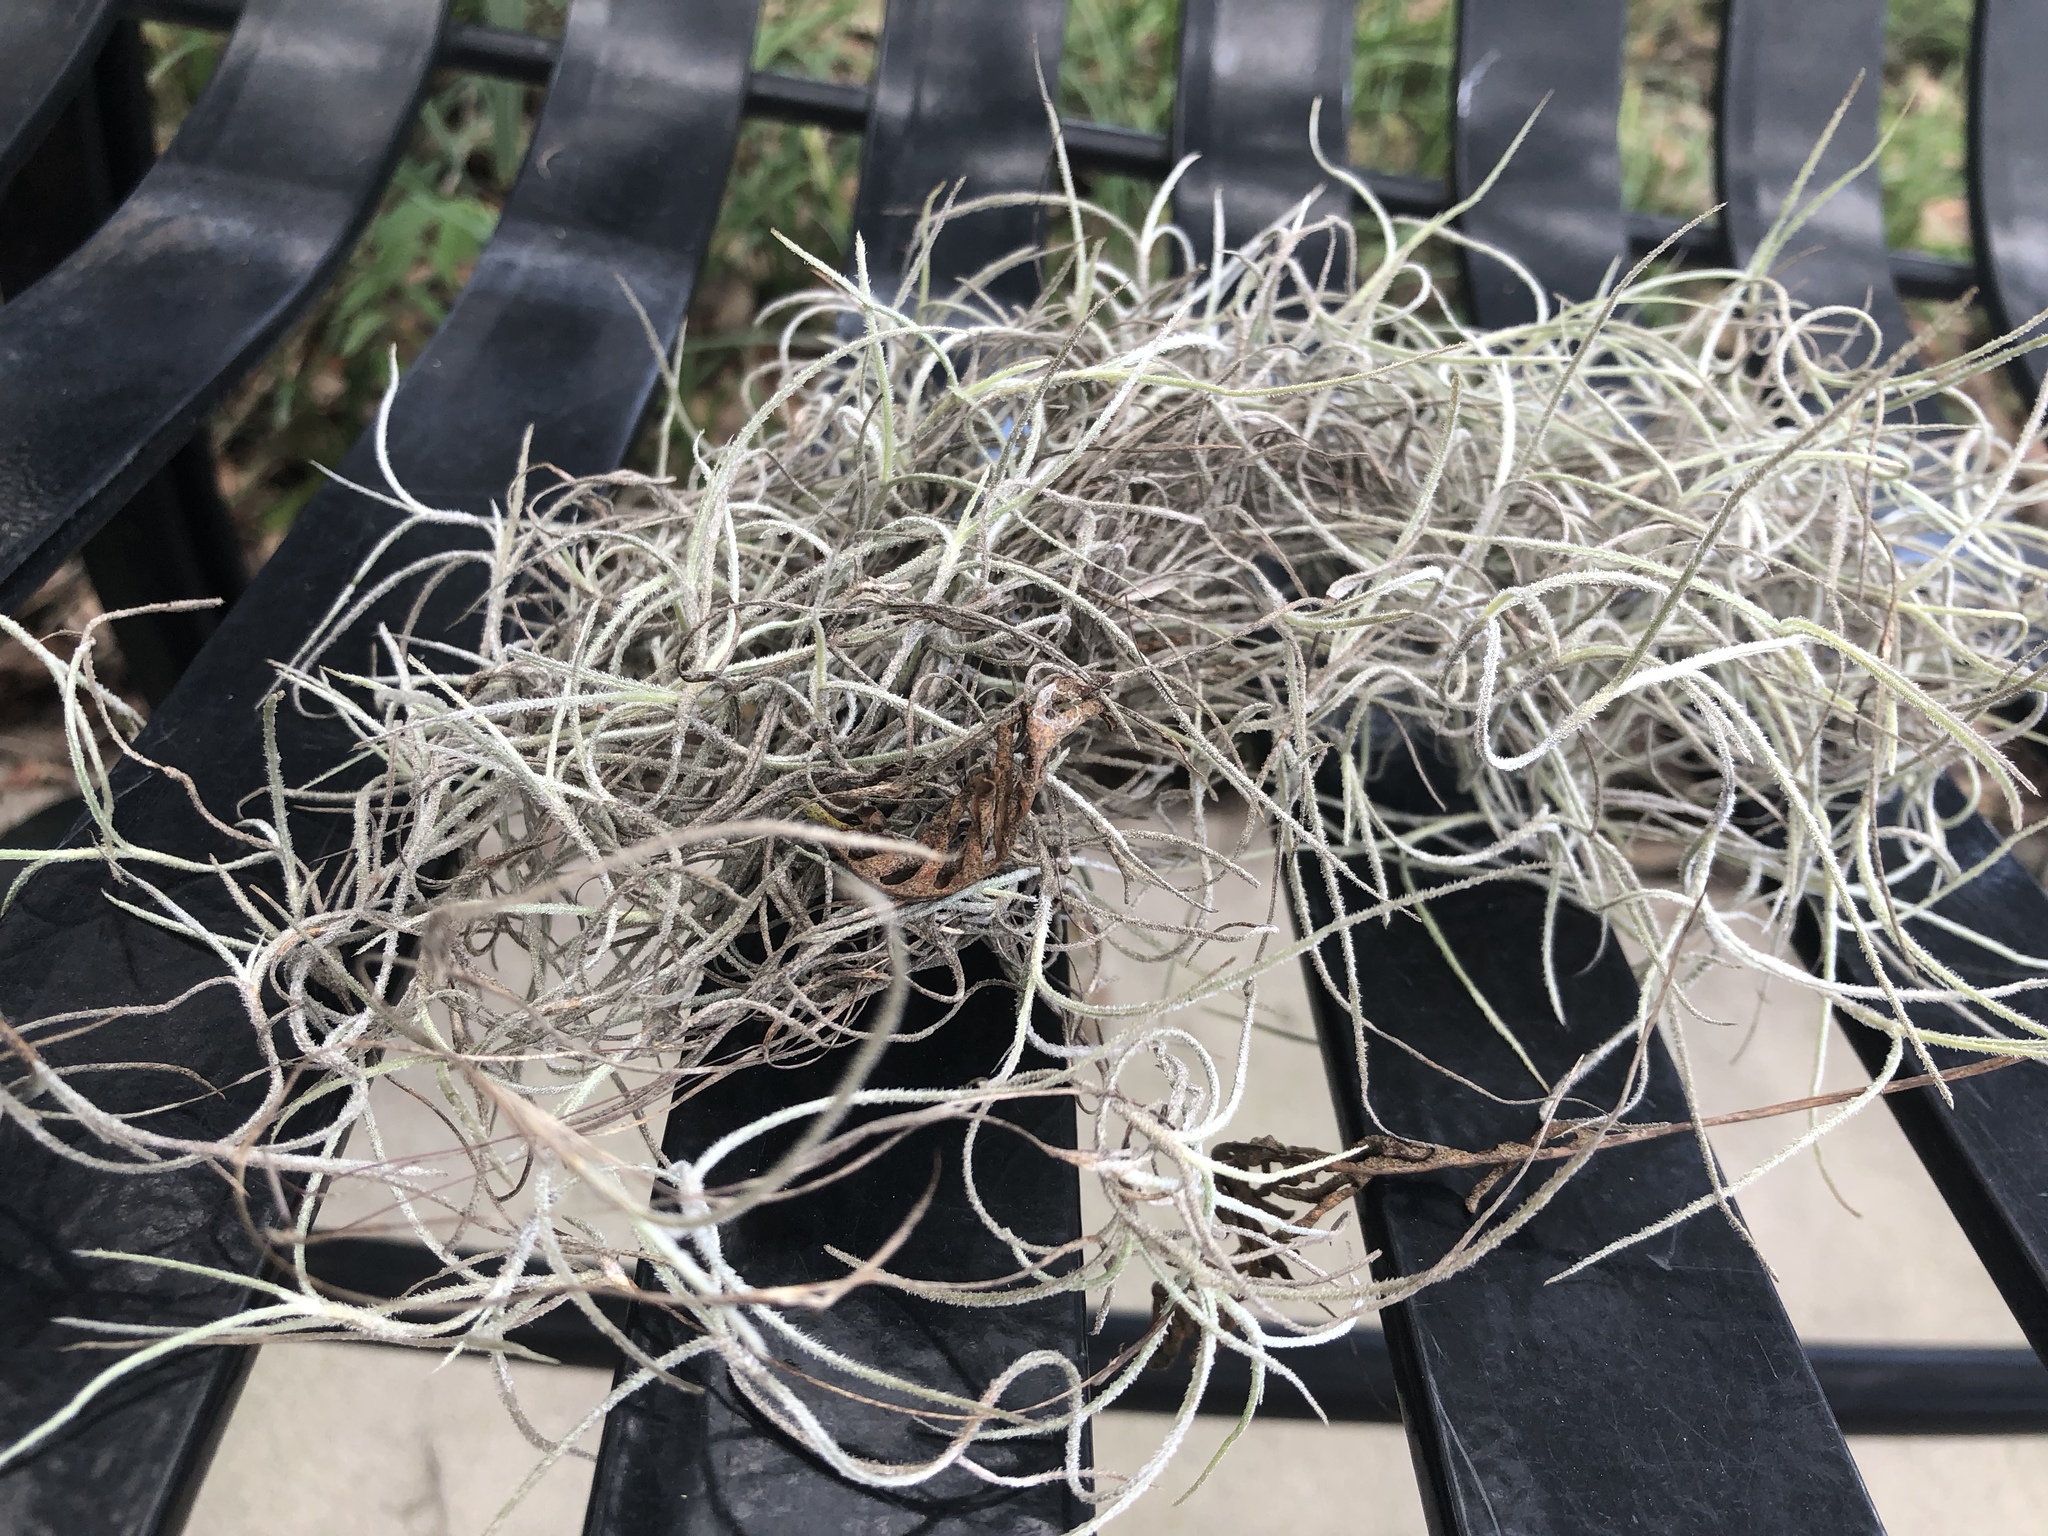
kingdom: Plantae
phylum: Tracheophyta
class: Liliopsida
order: Poales
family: Bromeliaceae
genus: Tillandsia
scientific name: Tillandsia usneoides
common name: Spanish moss
